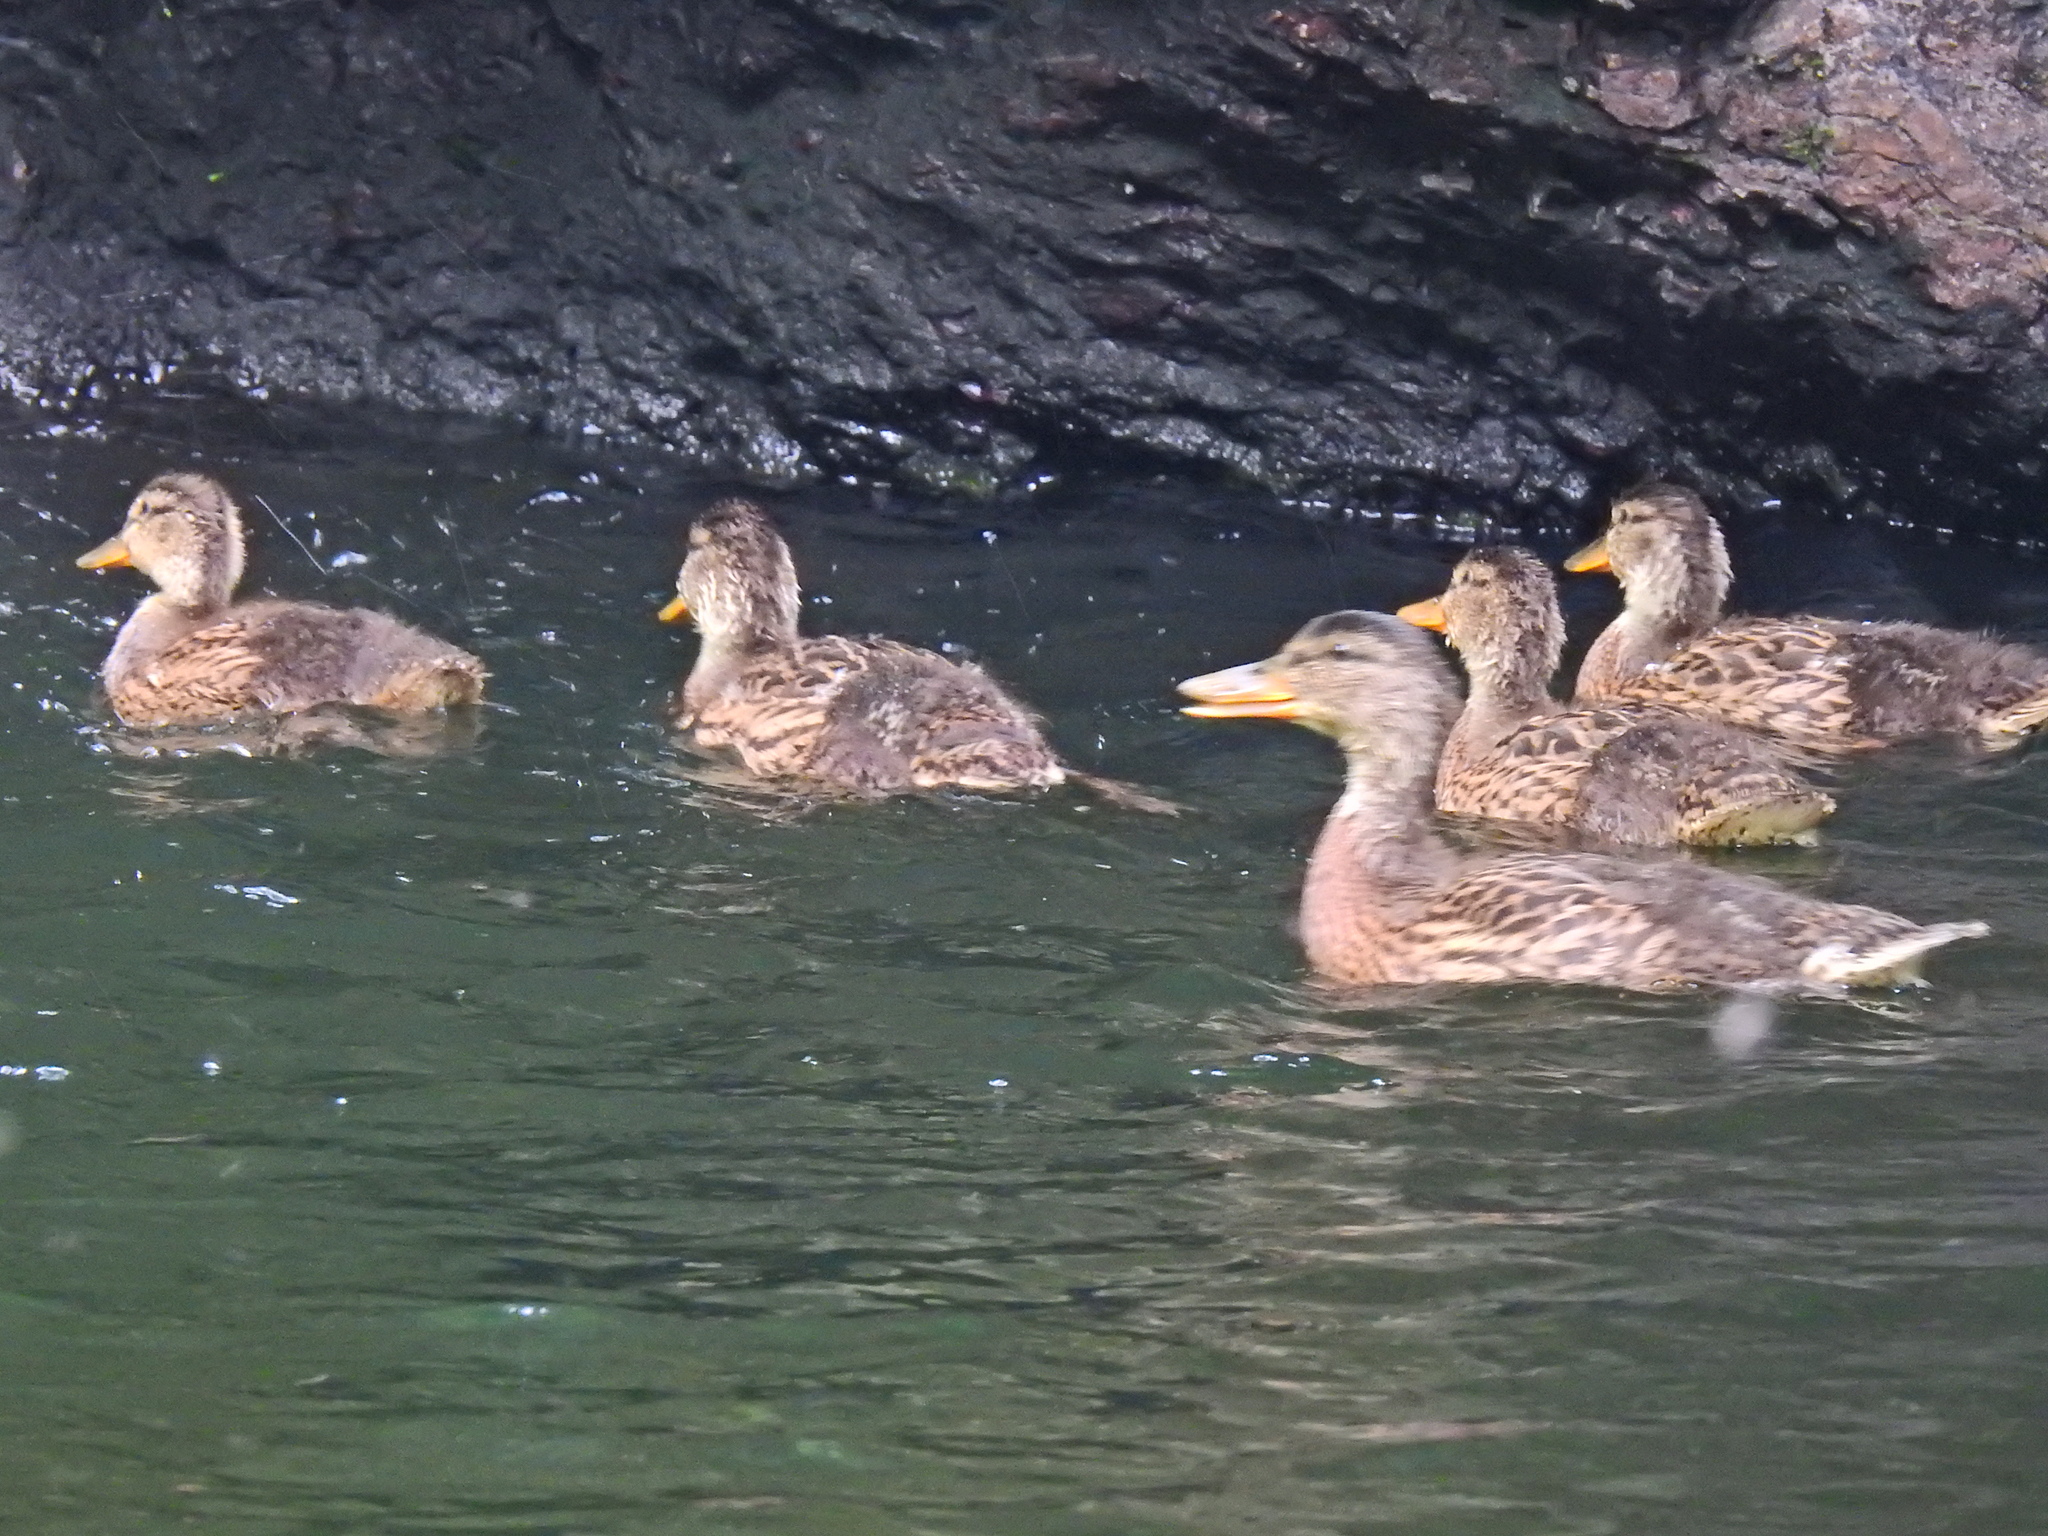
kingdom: Animalia
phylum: Chordata
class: Aves
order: Anseriformes
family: Anatidae
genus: Anas
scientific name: Anas platyrhynchos
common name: Mallard
